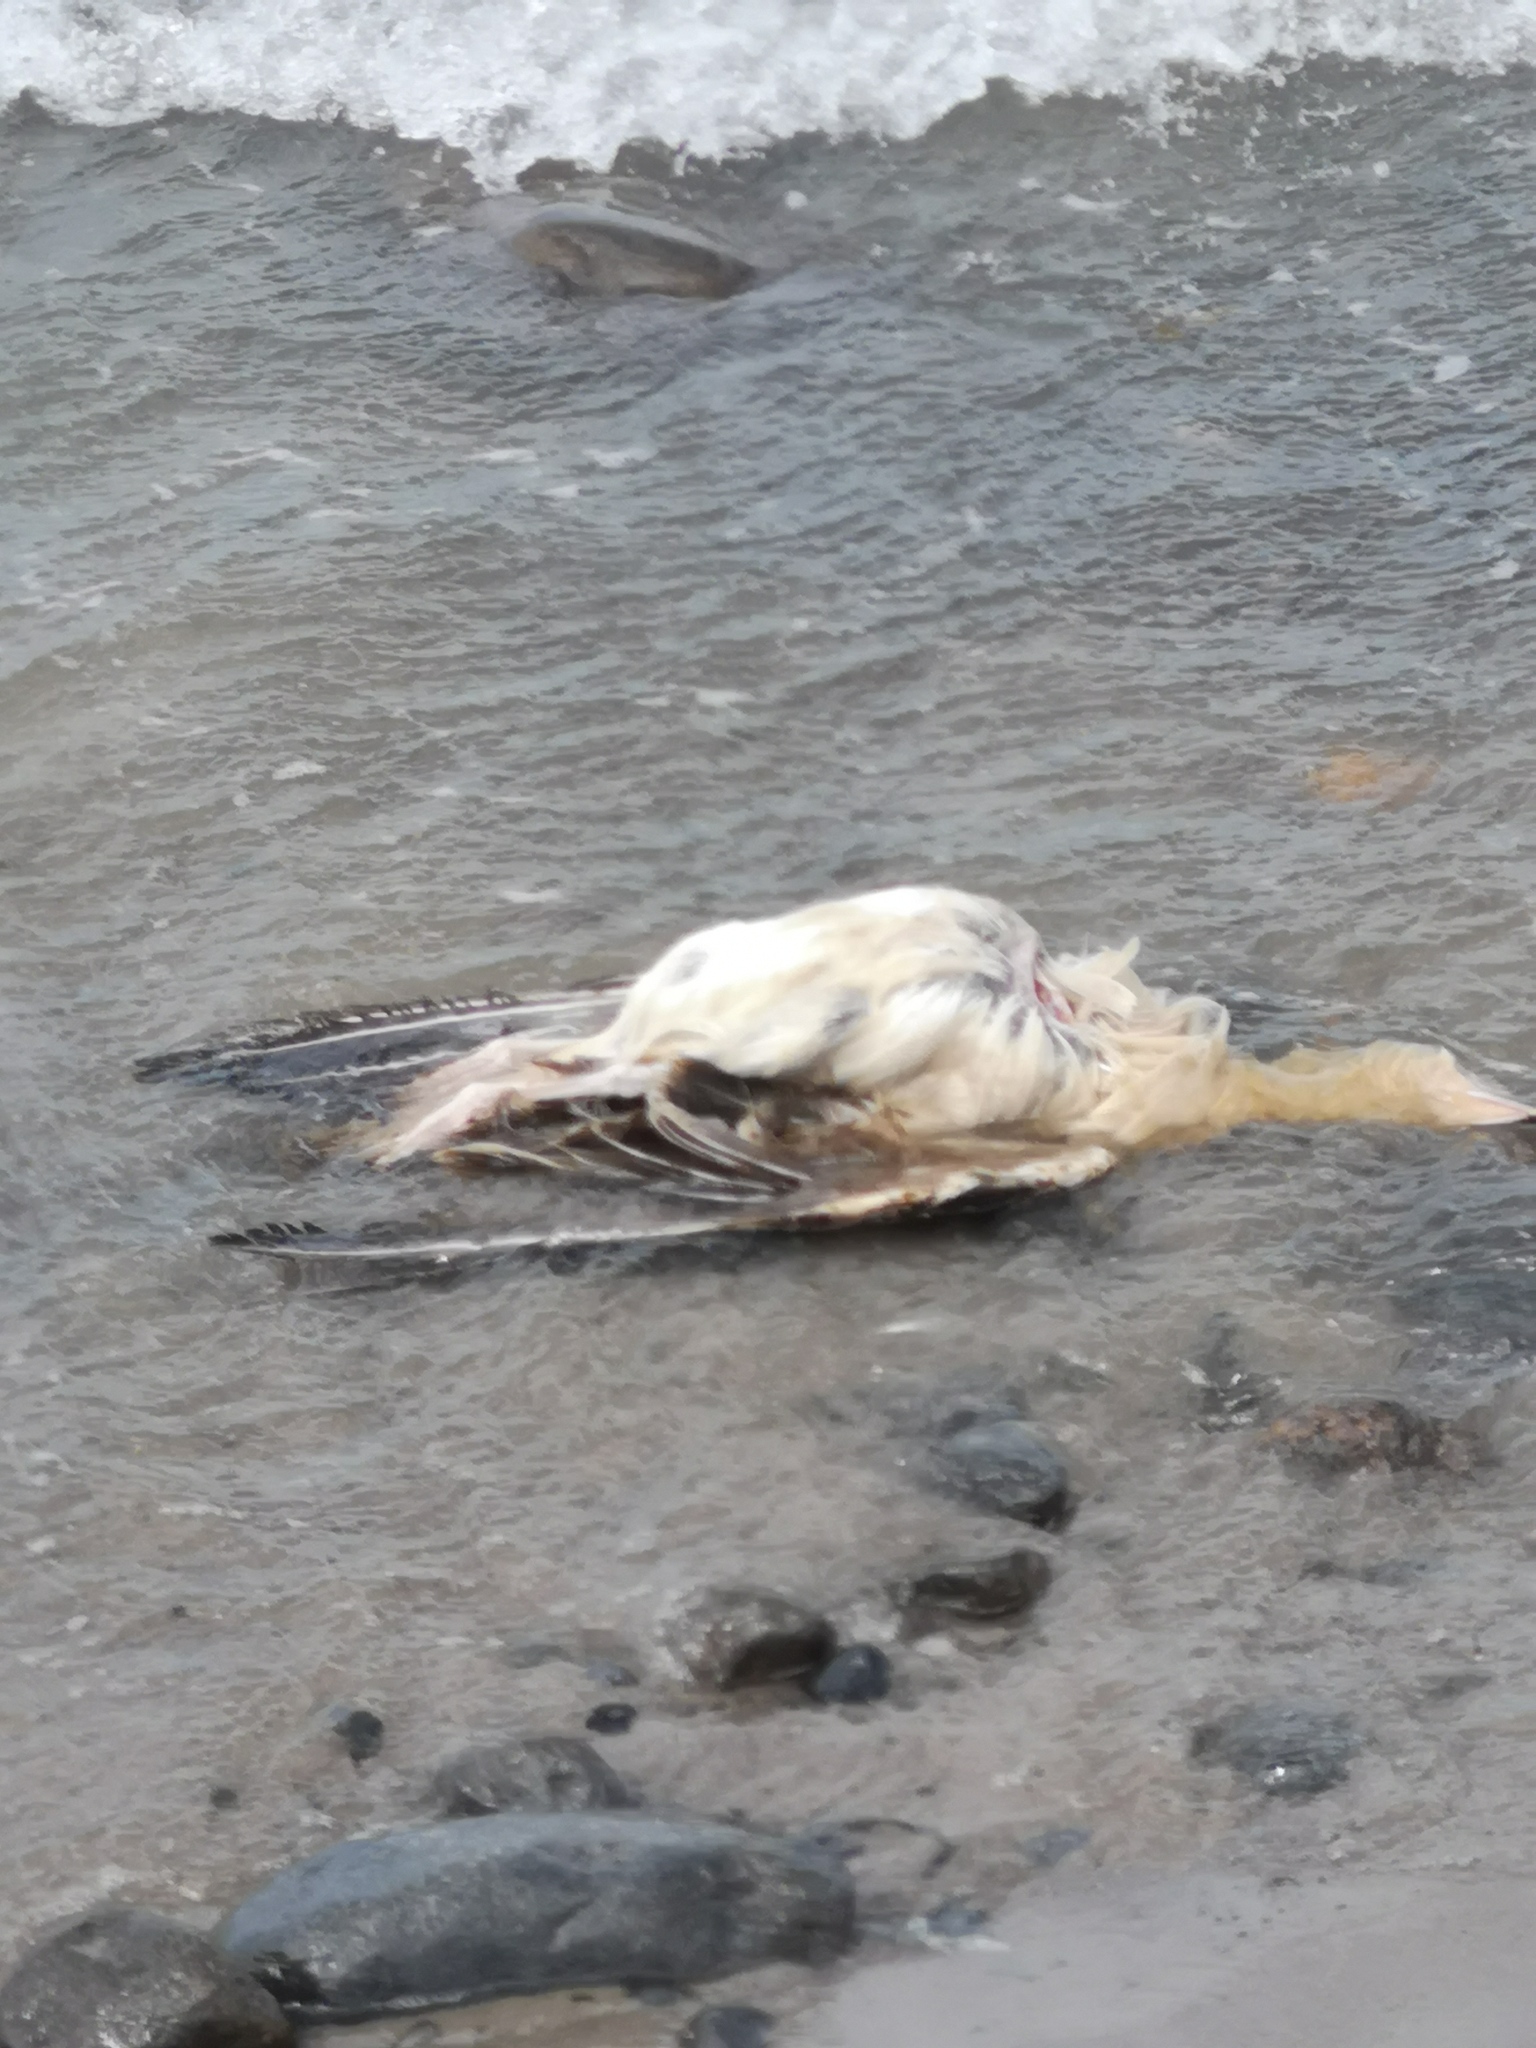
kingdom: Animalia
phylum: Chordata
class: Aves
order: Charadriiformes
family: Laridae
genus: Larus
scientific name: Larus argentatus
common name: Herring gull
